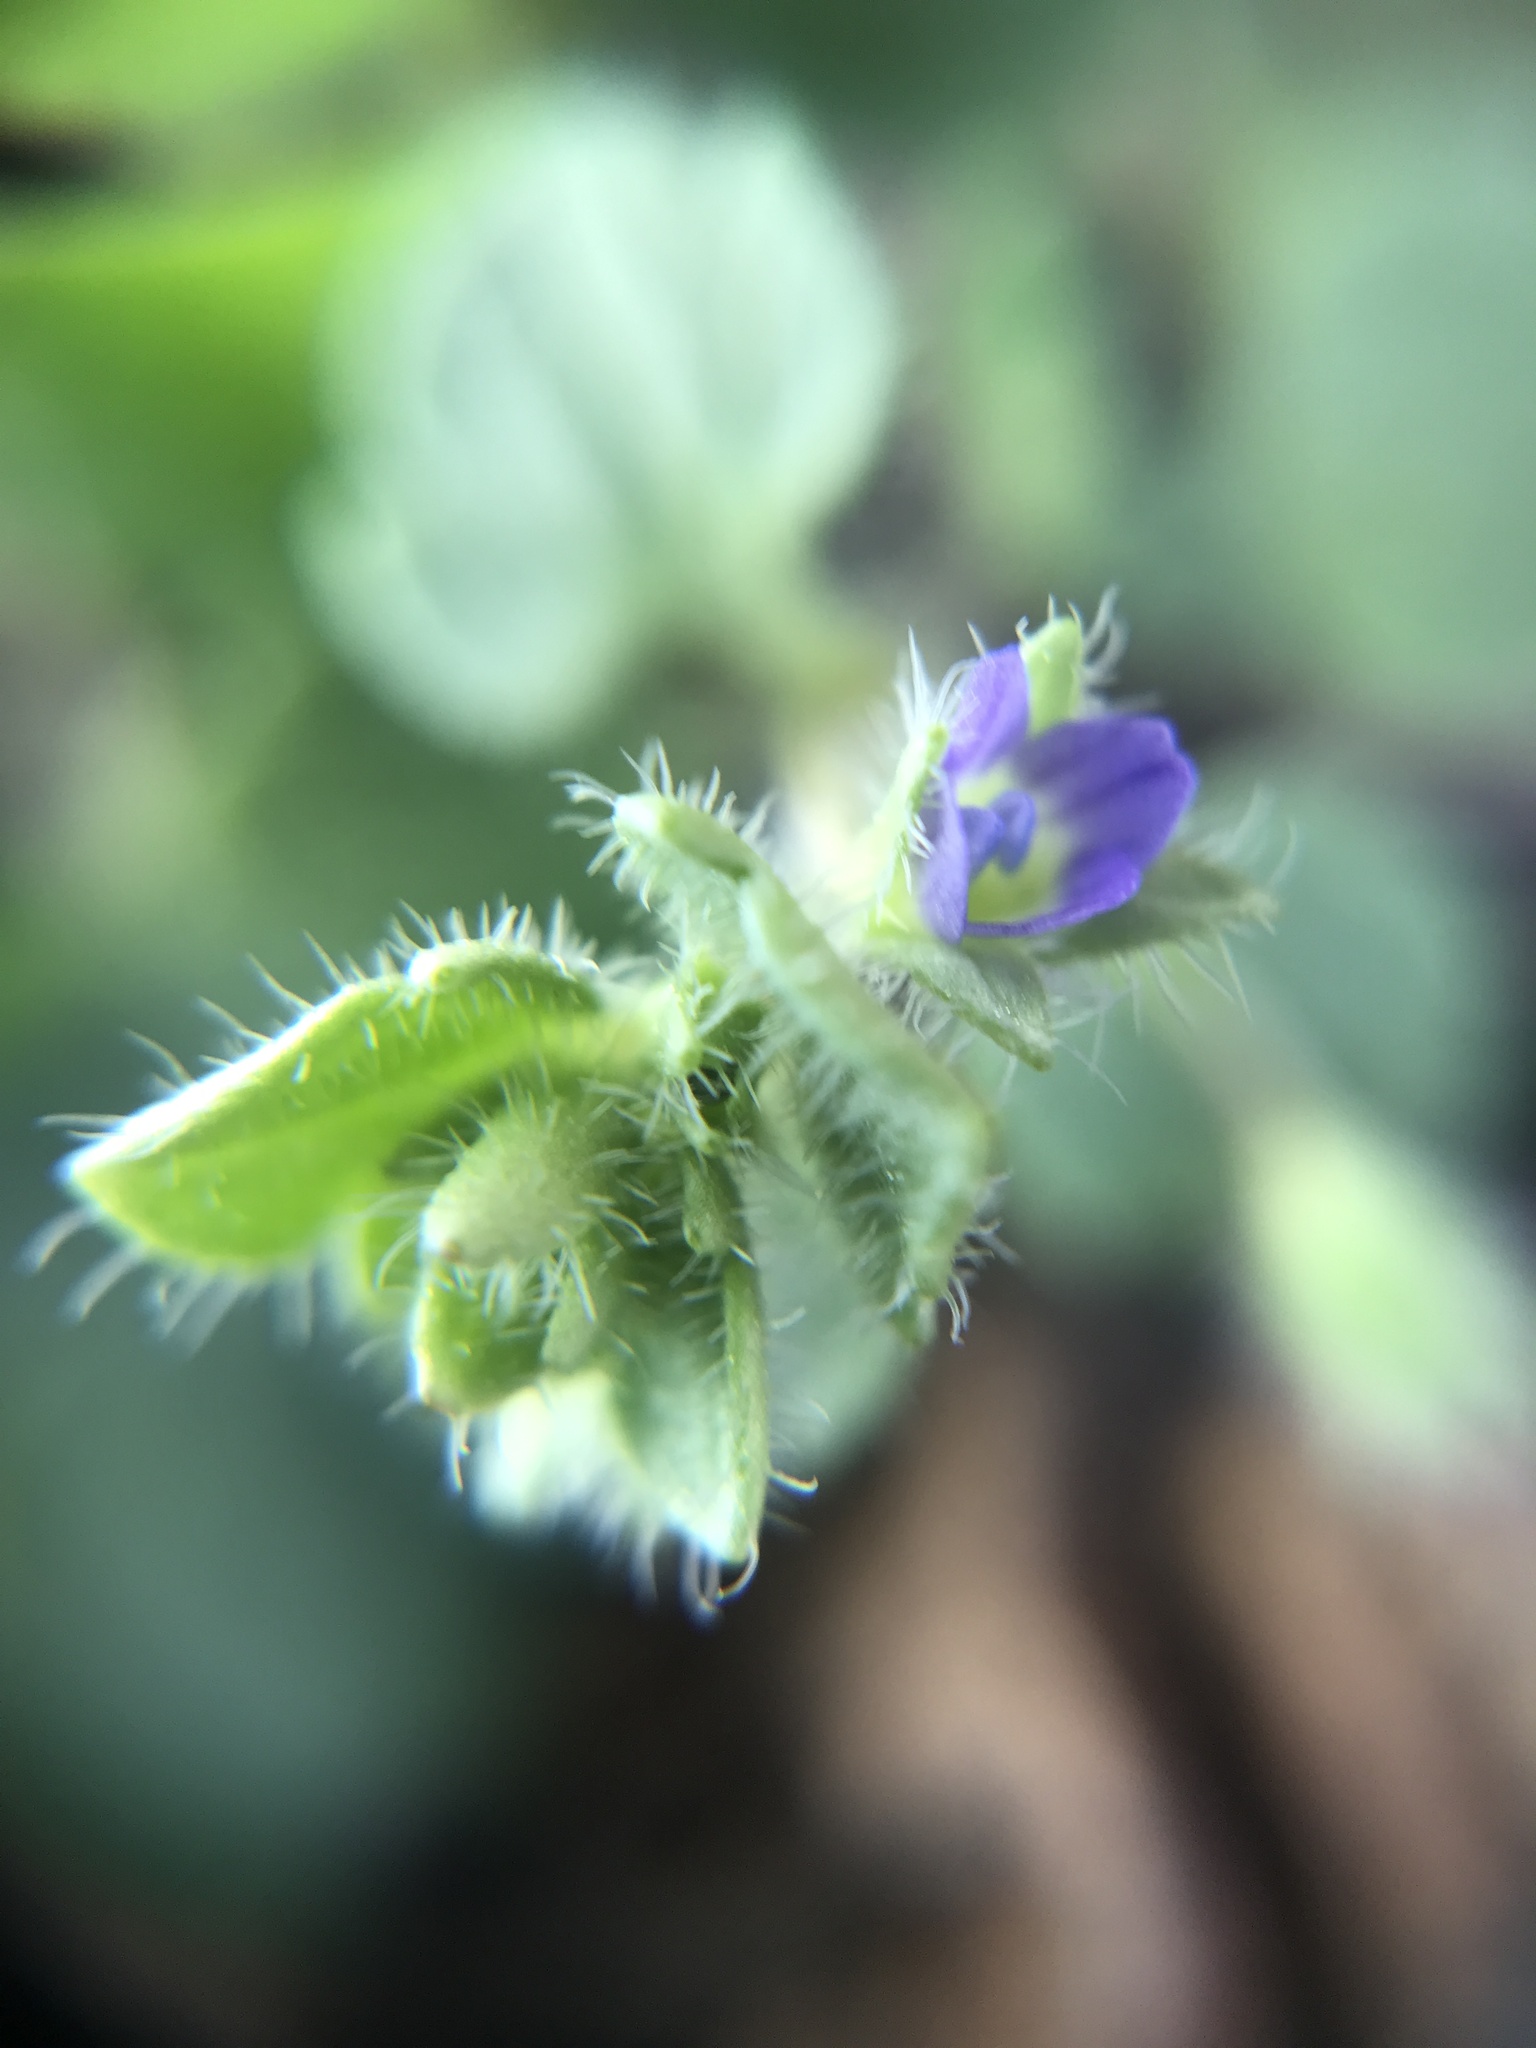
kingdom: Plantae
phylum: Tracheophyta
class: Magnoliopsida
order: Lamiales
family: Plantaginaceae
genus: Veronica
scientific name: Veronica hederifolia
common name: Ivy-leaved speedwell
